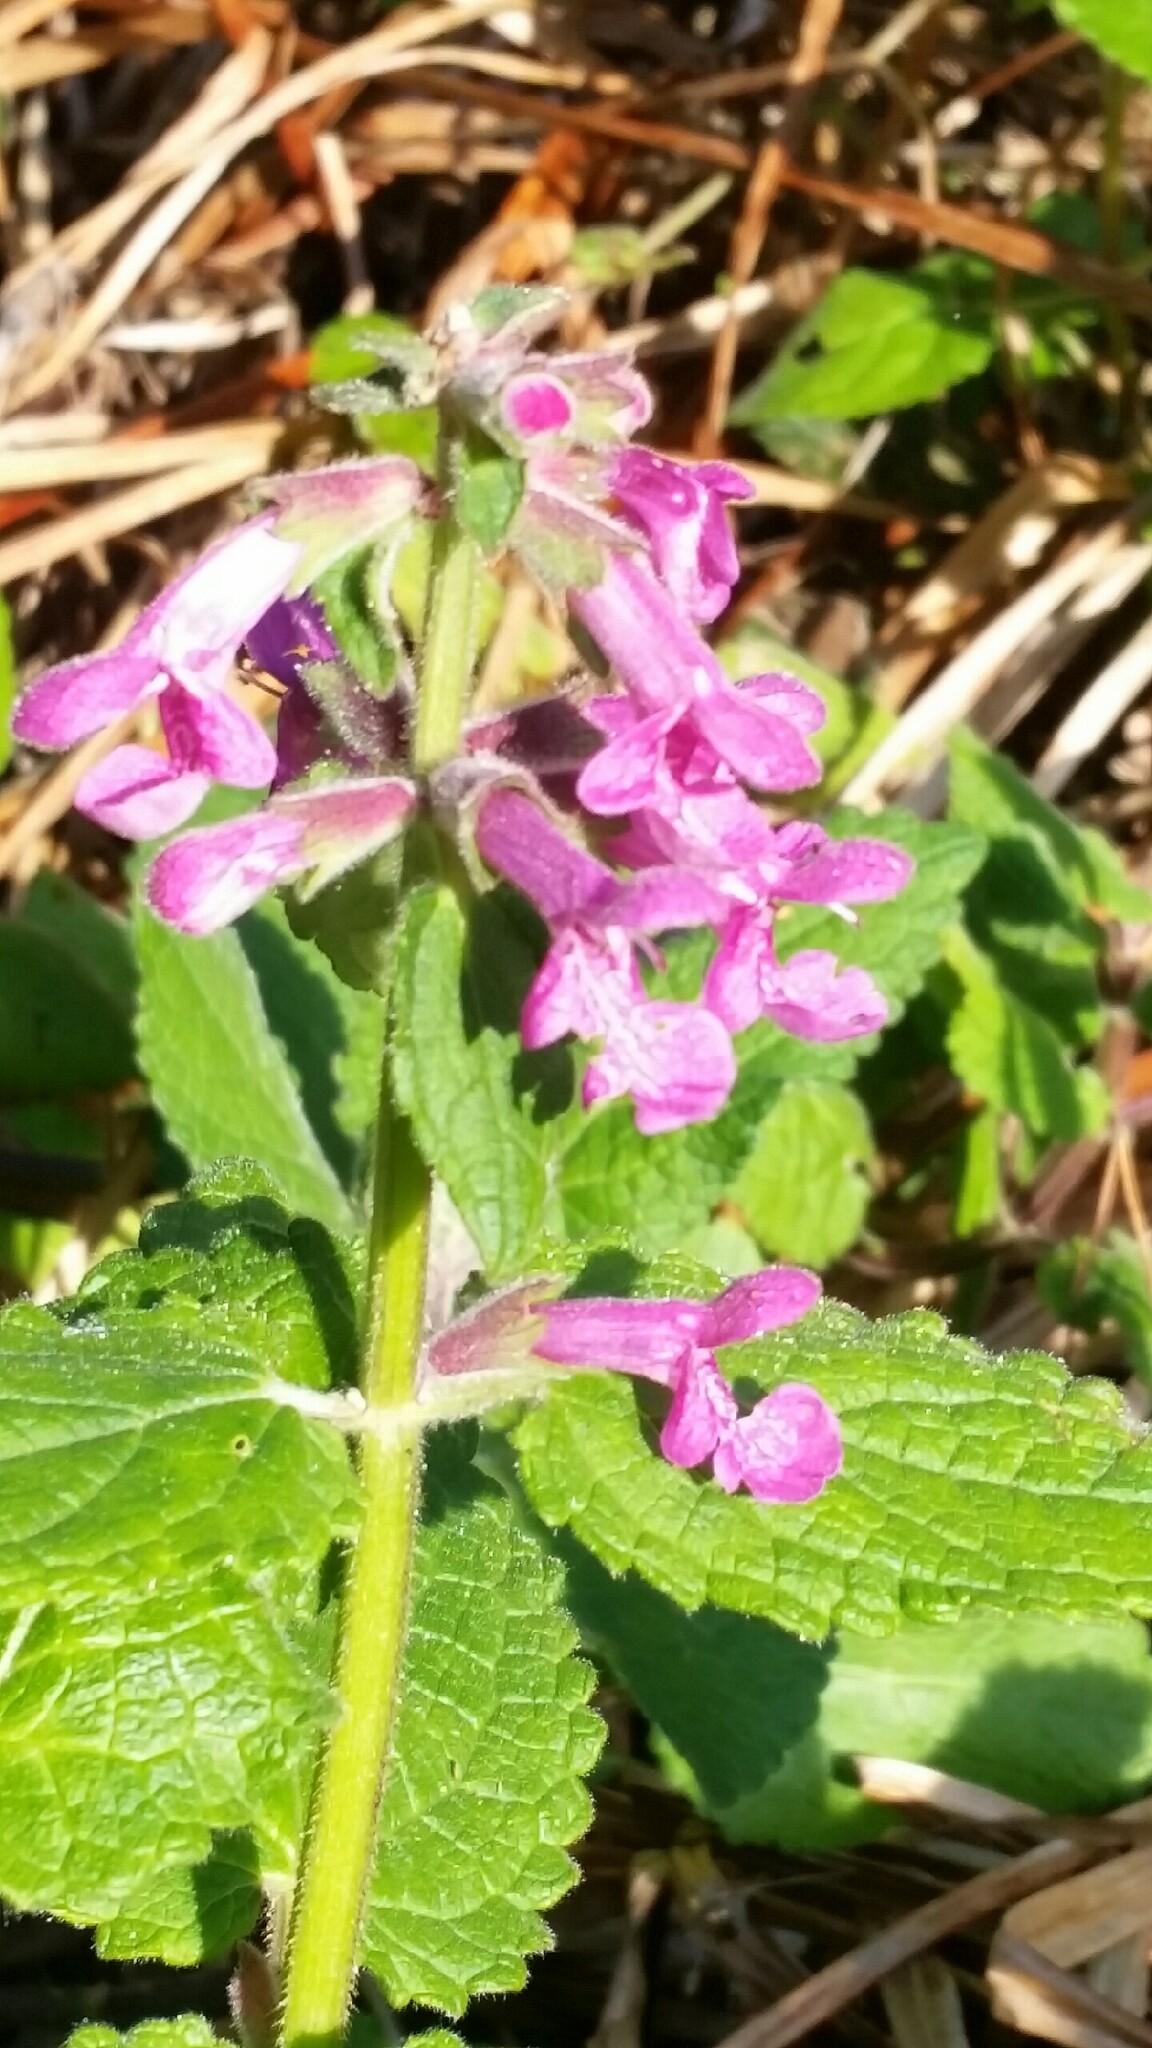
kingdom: Plantae
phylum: Tracheophyta
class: Magnoliopsida
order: Lamiales
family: Lamiaceae
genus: Stachys
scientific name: Stachys chamissonis
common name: Coastal hedge-nettle
